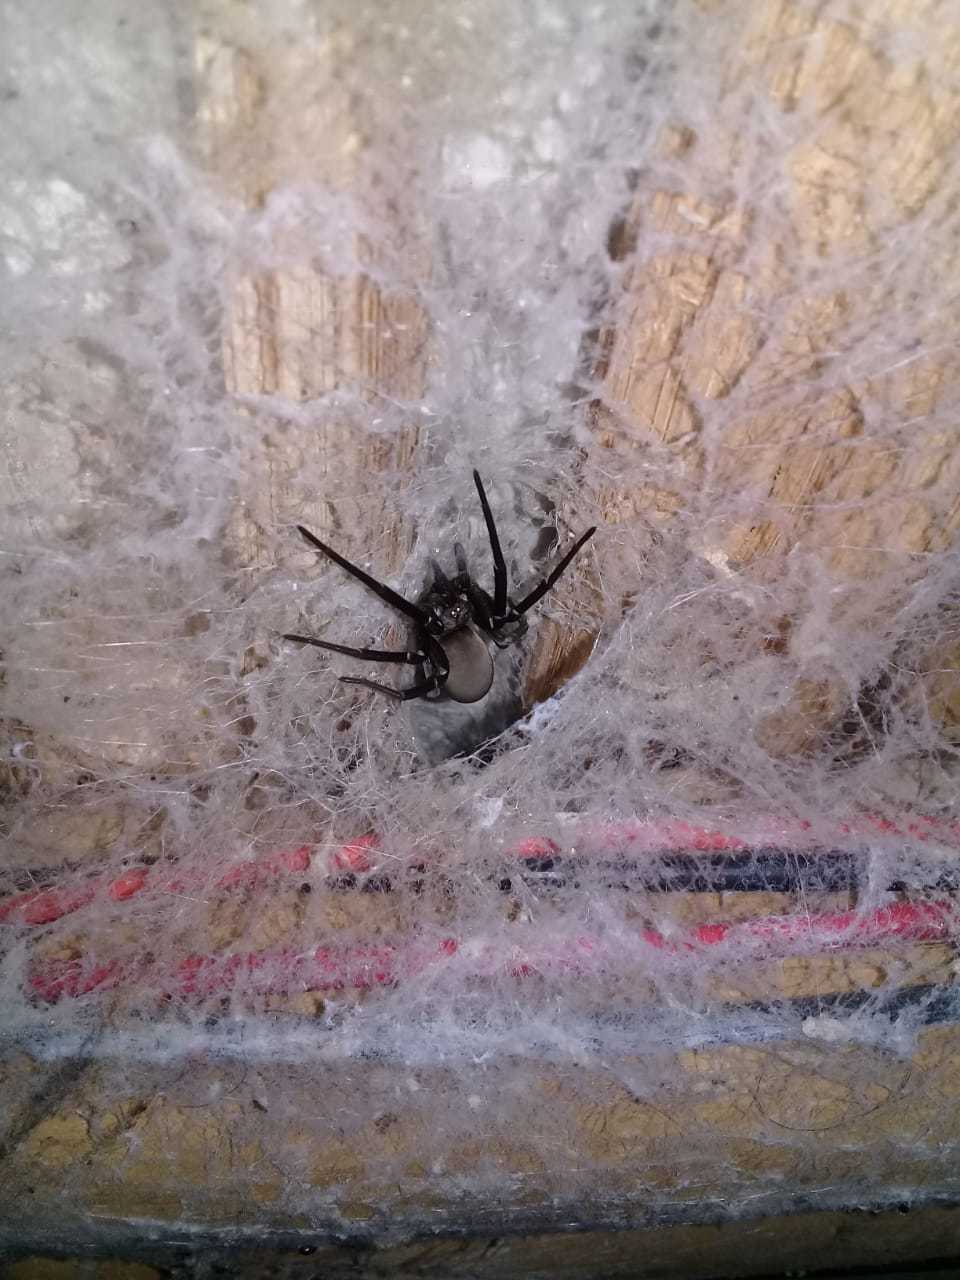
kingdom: Animalia
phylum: Arthropoda
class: Arachnida
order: Araneae
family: Filistatidae
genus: Kukulcania
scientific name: Kukulcania hibernalis
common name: Crevice weaver
